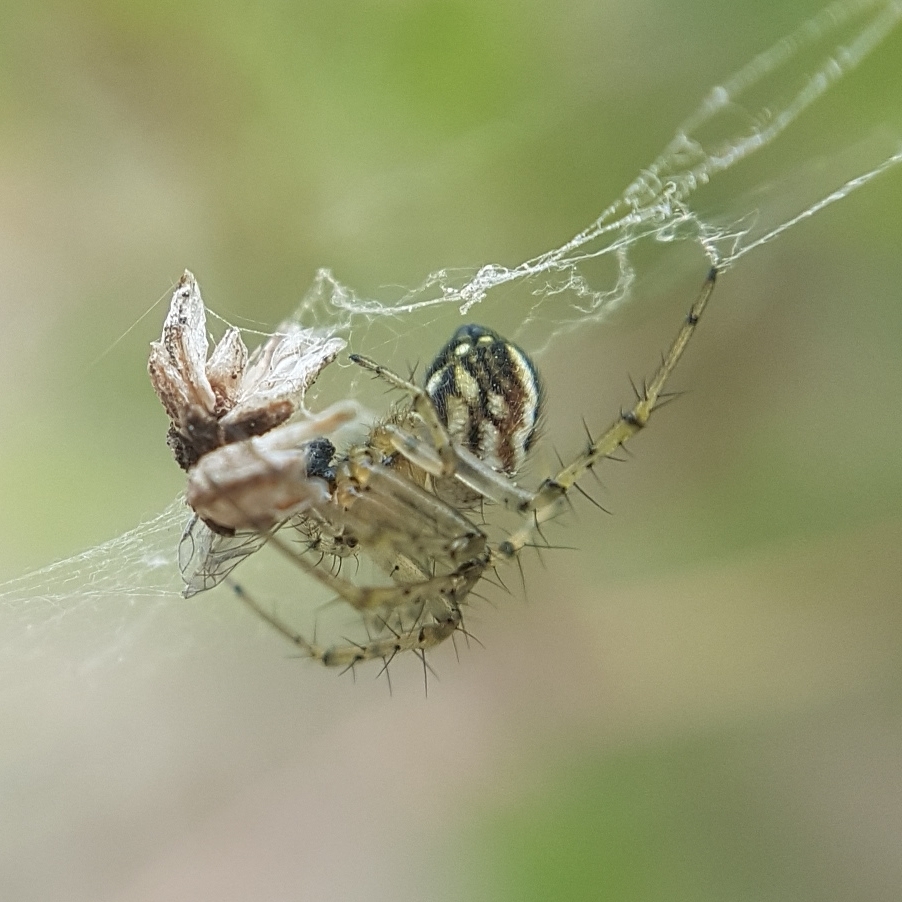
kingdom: Animalia
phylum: Arthropoda
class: Arachnida
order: Araneae
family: Araneidae
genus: Mangora
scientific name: Mangora acalypha
